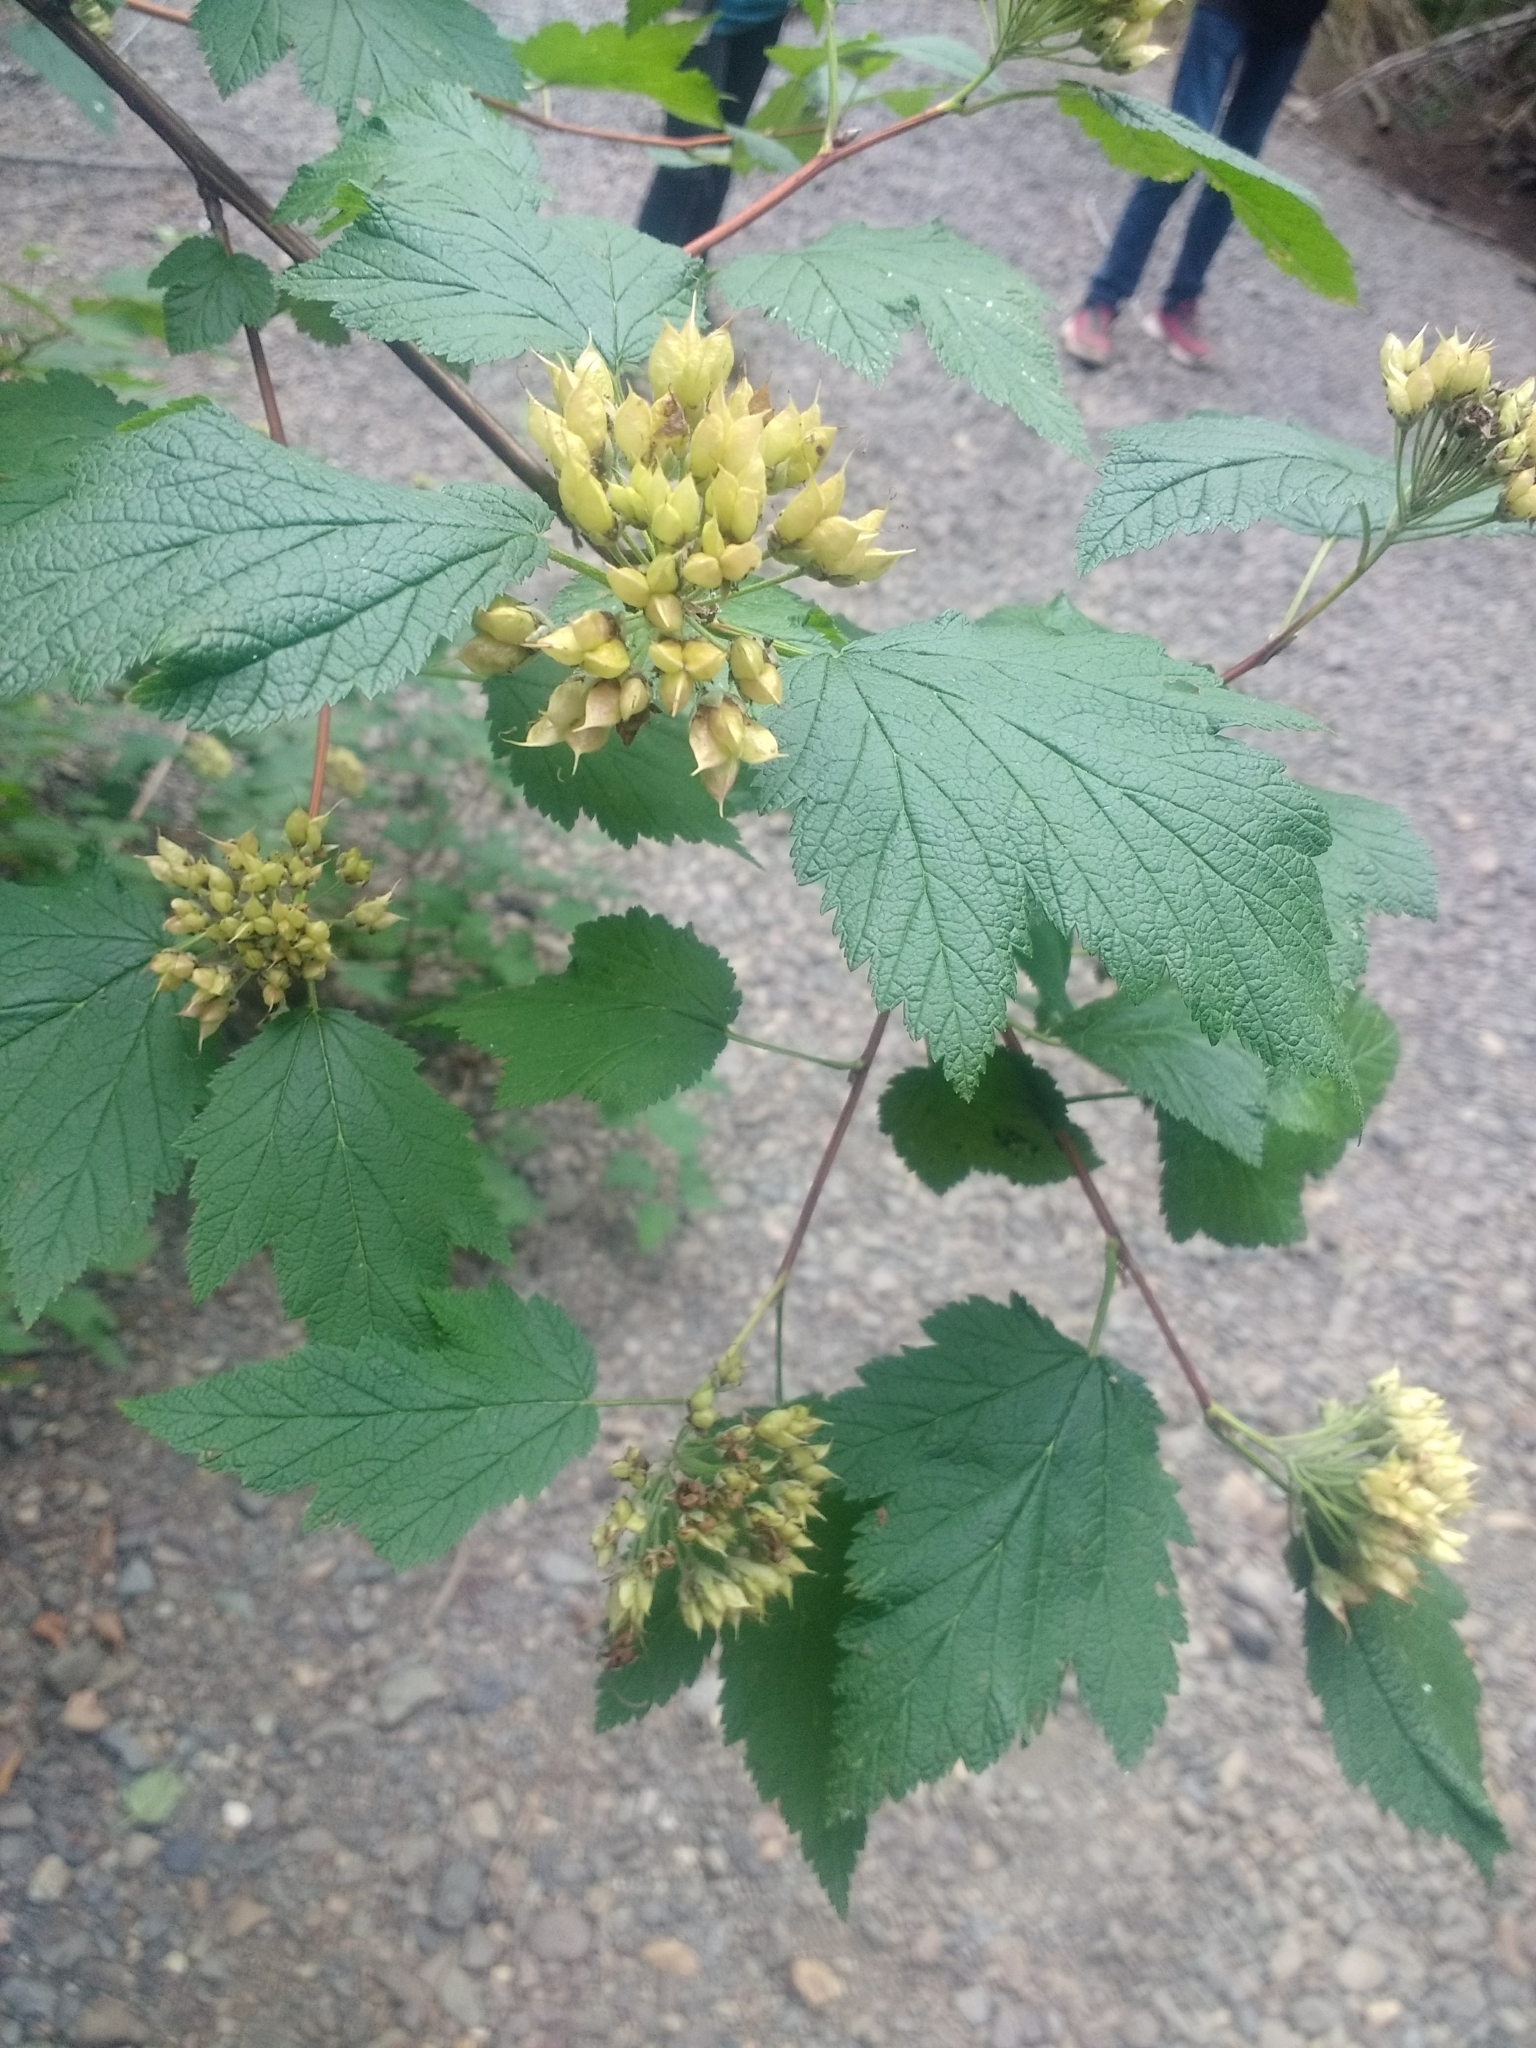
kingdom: Plantae
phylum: Tracheophyta
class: Magnoliopsida
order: Rosales
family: Rosaceae
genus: Physocarpus
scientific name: Physocarpus capitatus
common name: Pacific ninebark
